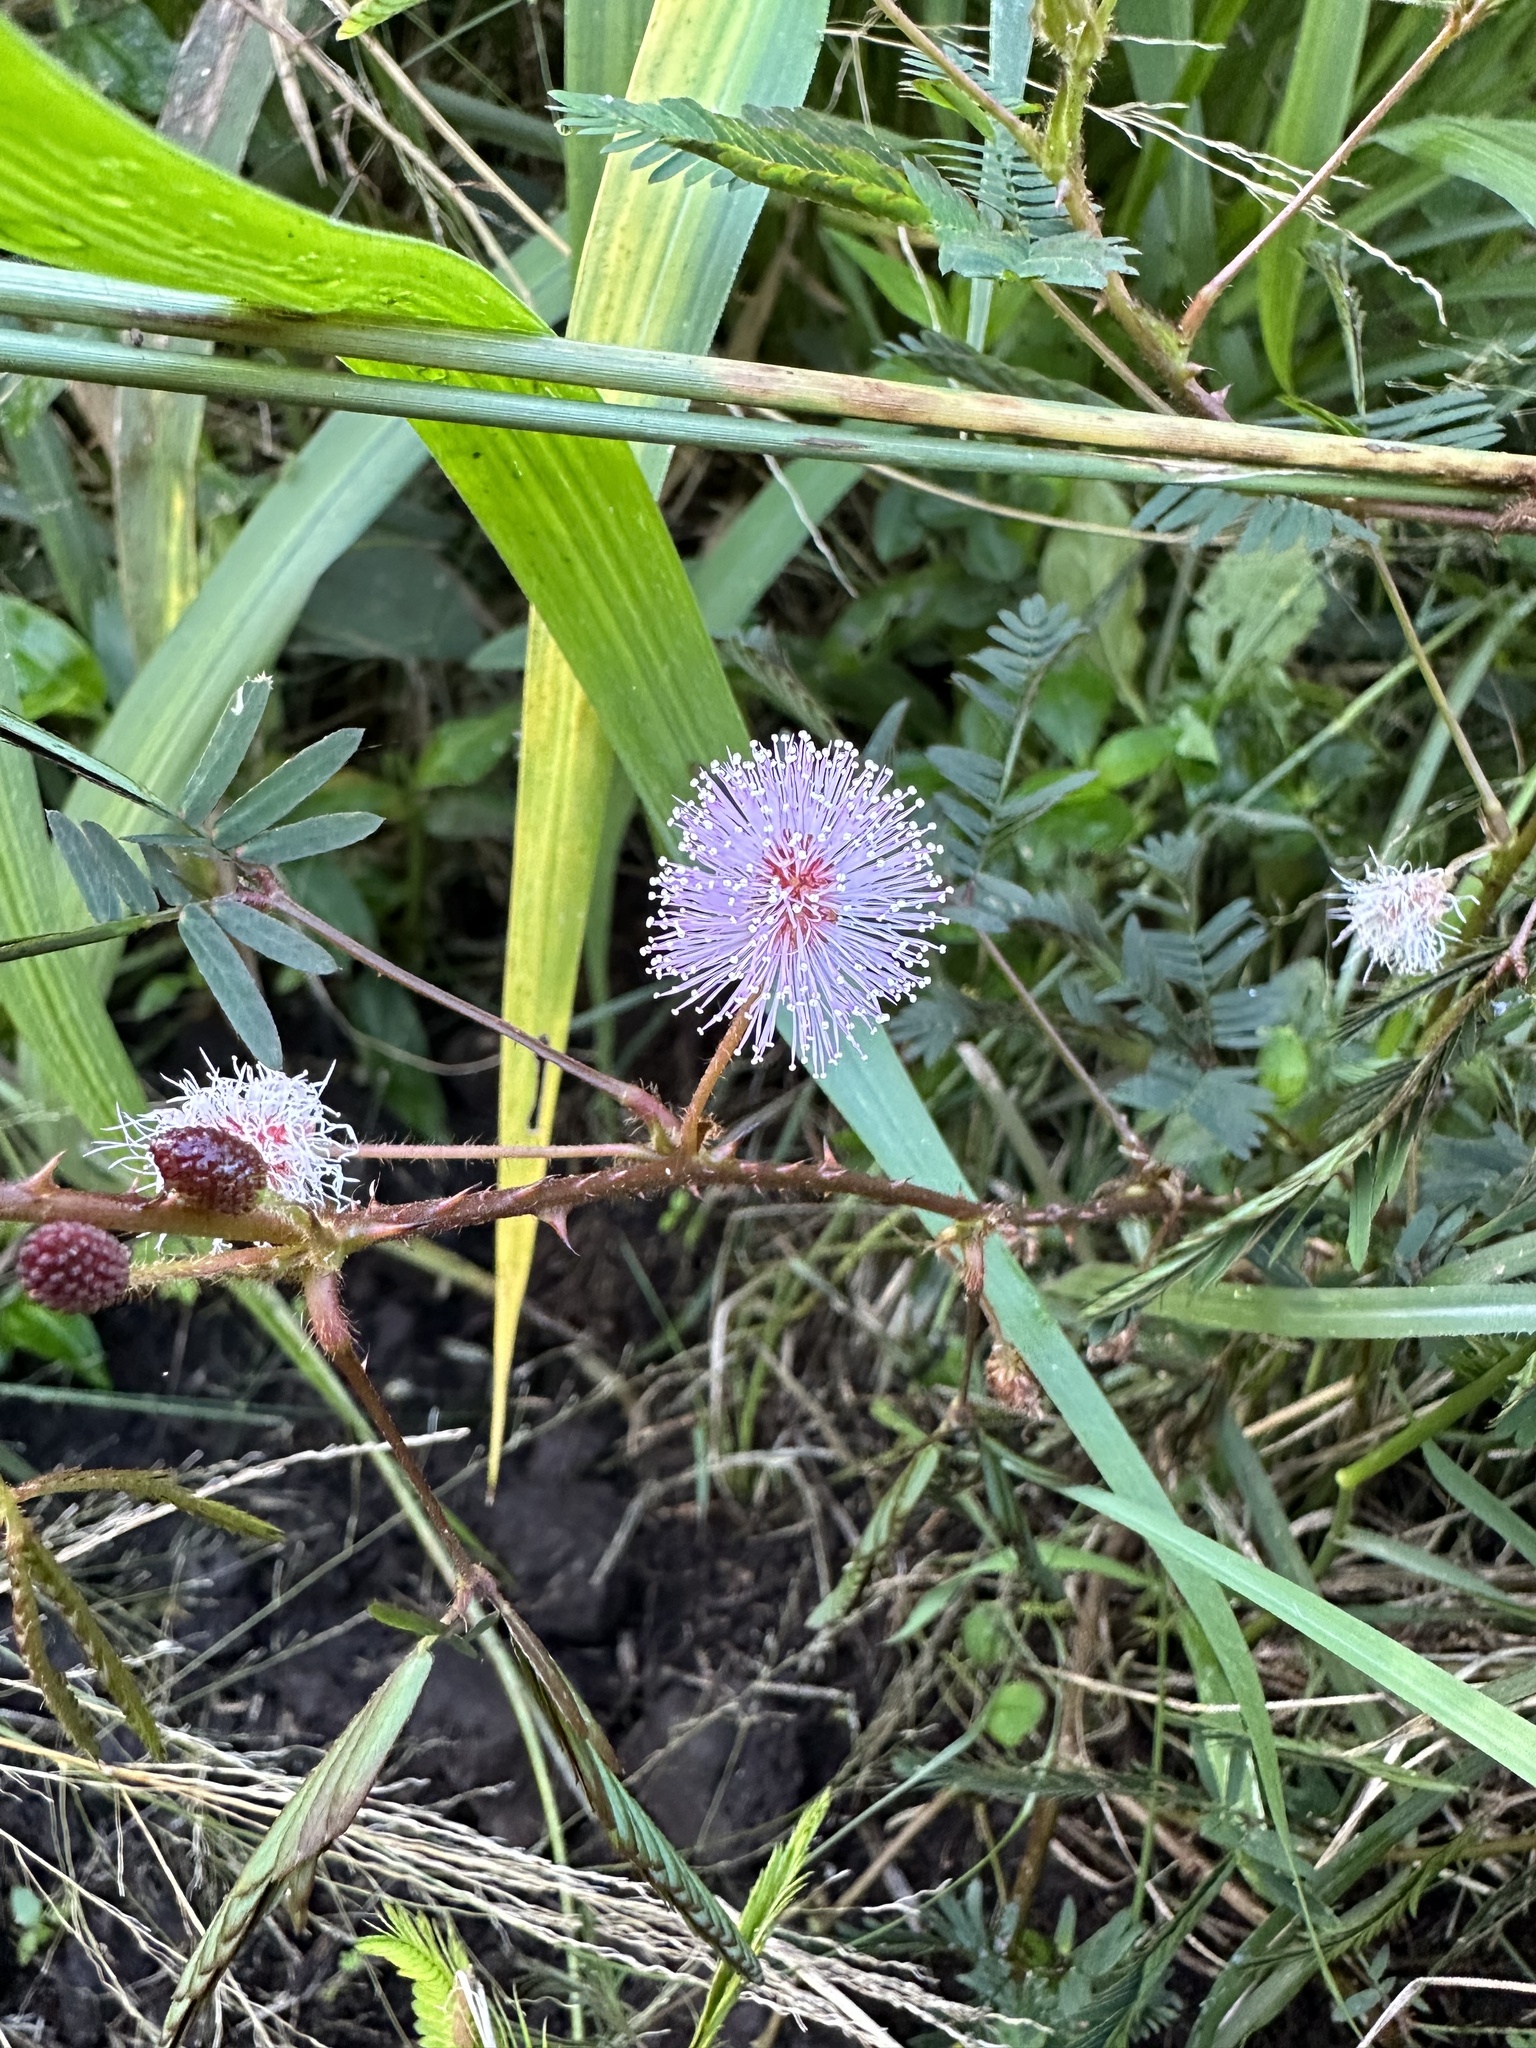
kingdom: Plantae
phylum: Tracheophyta
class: Magnoliopsida
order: Fabales
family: Fabaceae
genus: Mimosa
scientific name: Mimosa pudica
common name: Sensitive plant
